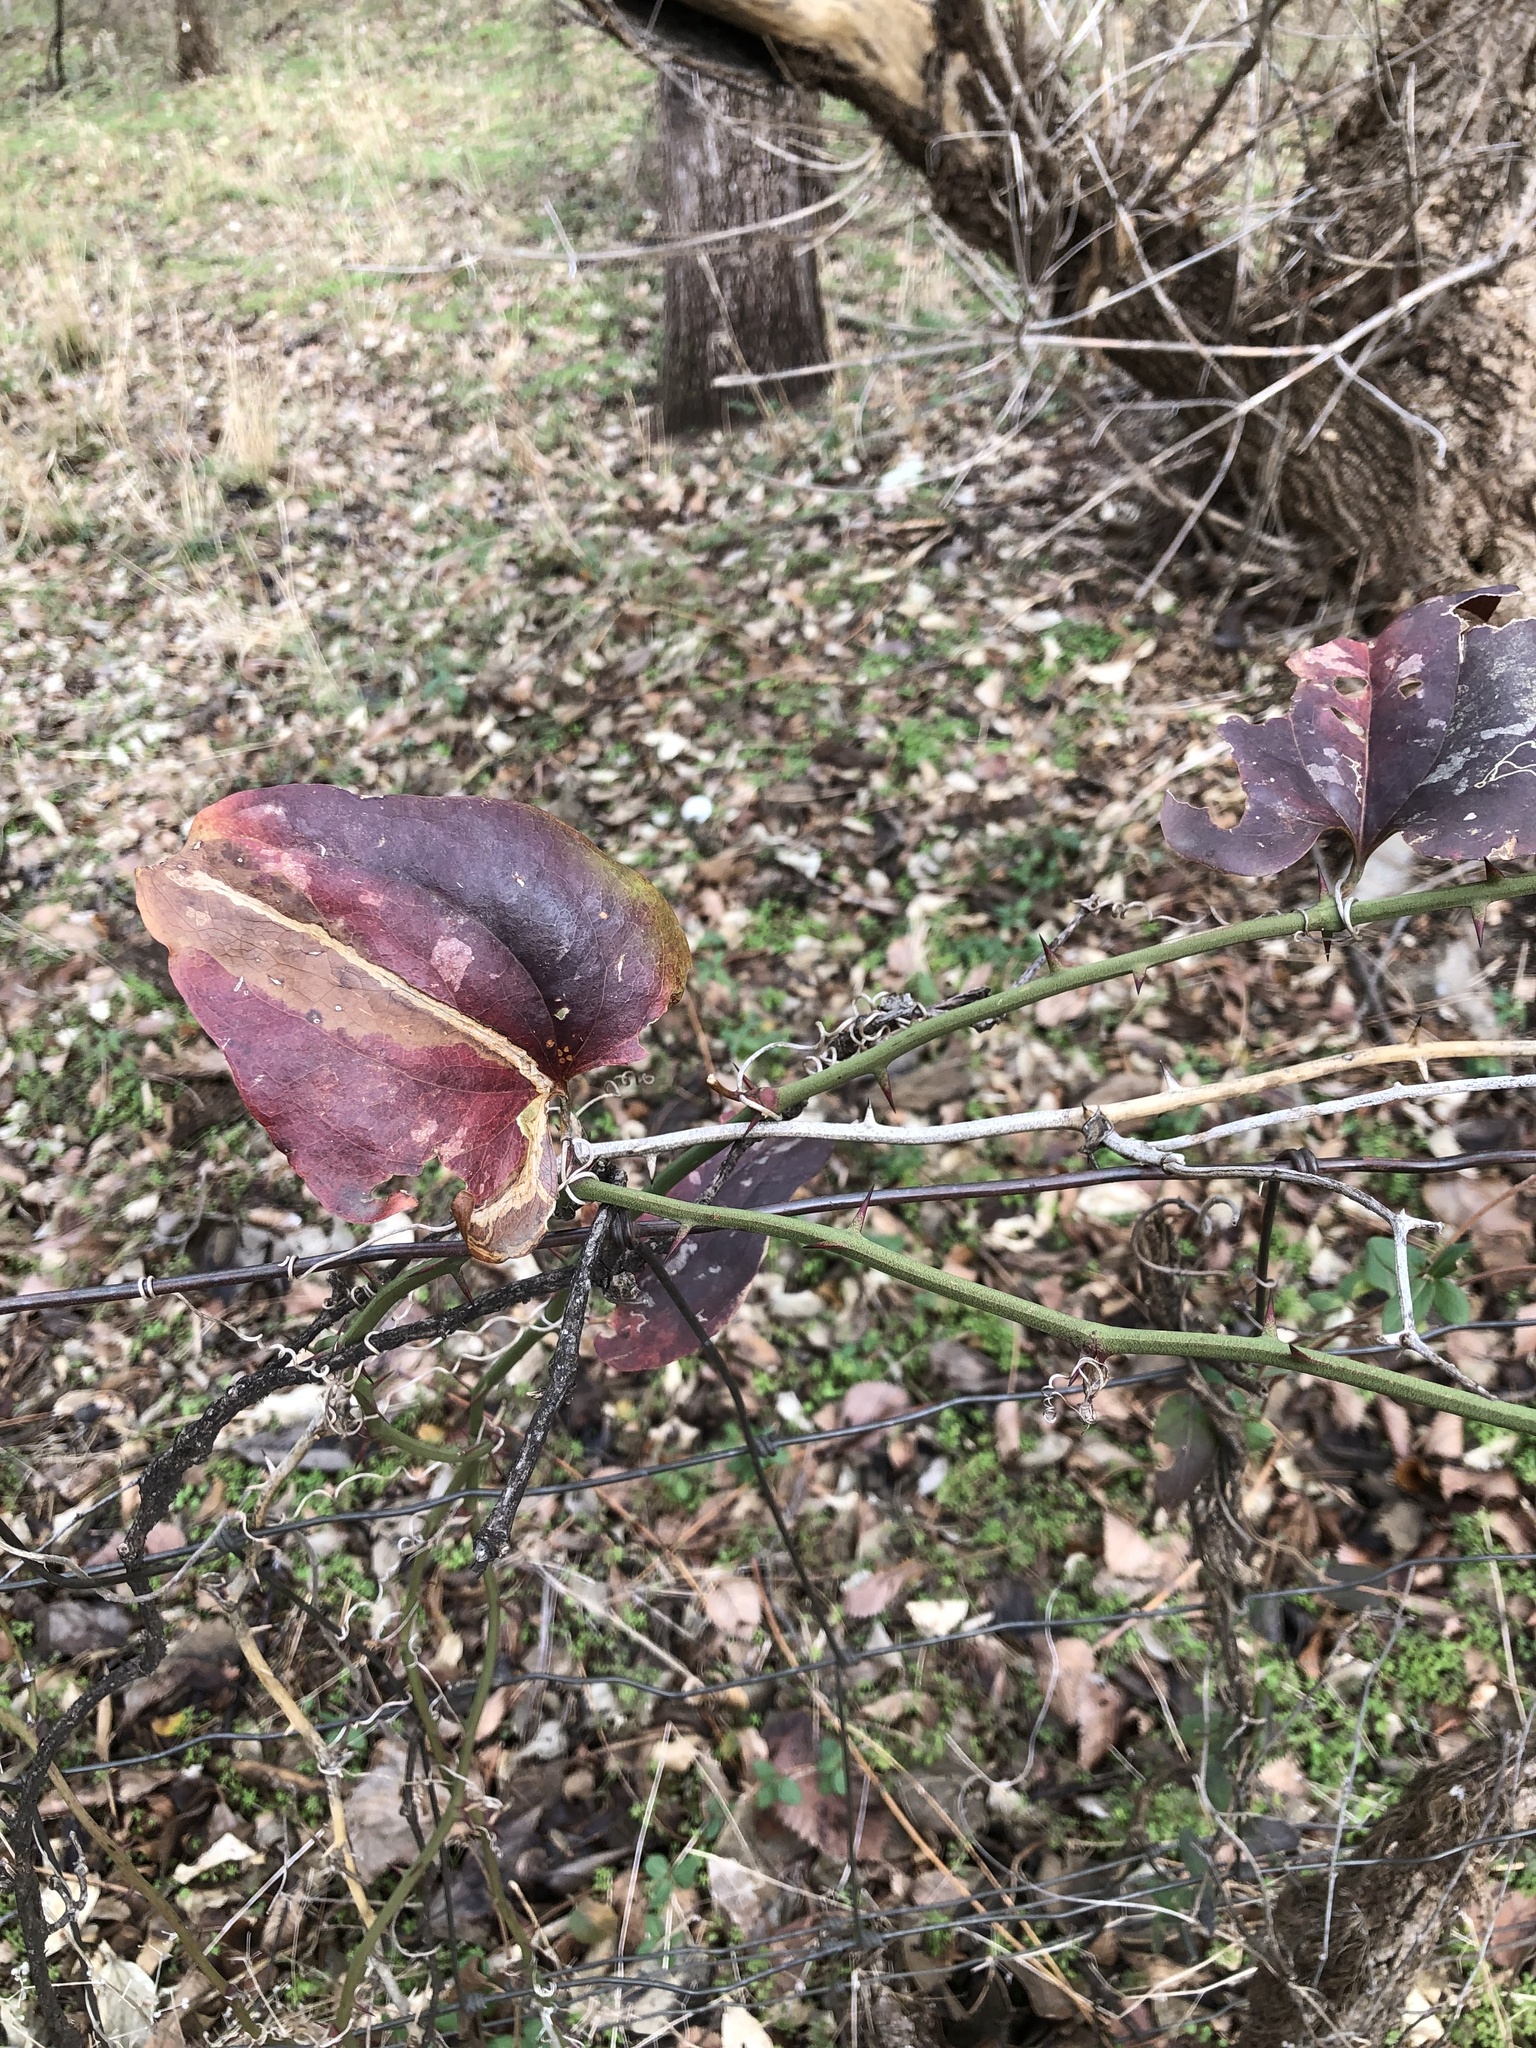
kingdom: Plantae
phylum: Tracheophyta
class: Liliopsida
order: Liliales
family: Smilacaceae
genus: Smilax
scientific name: Smilax bona-nox
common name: Catbrier
